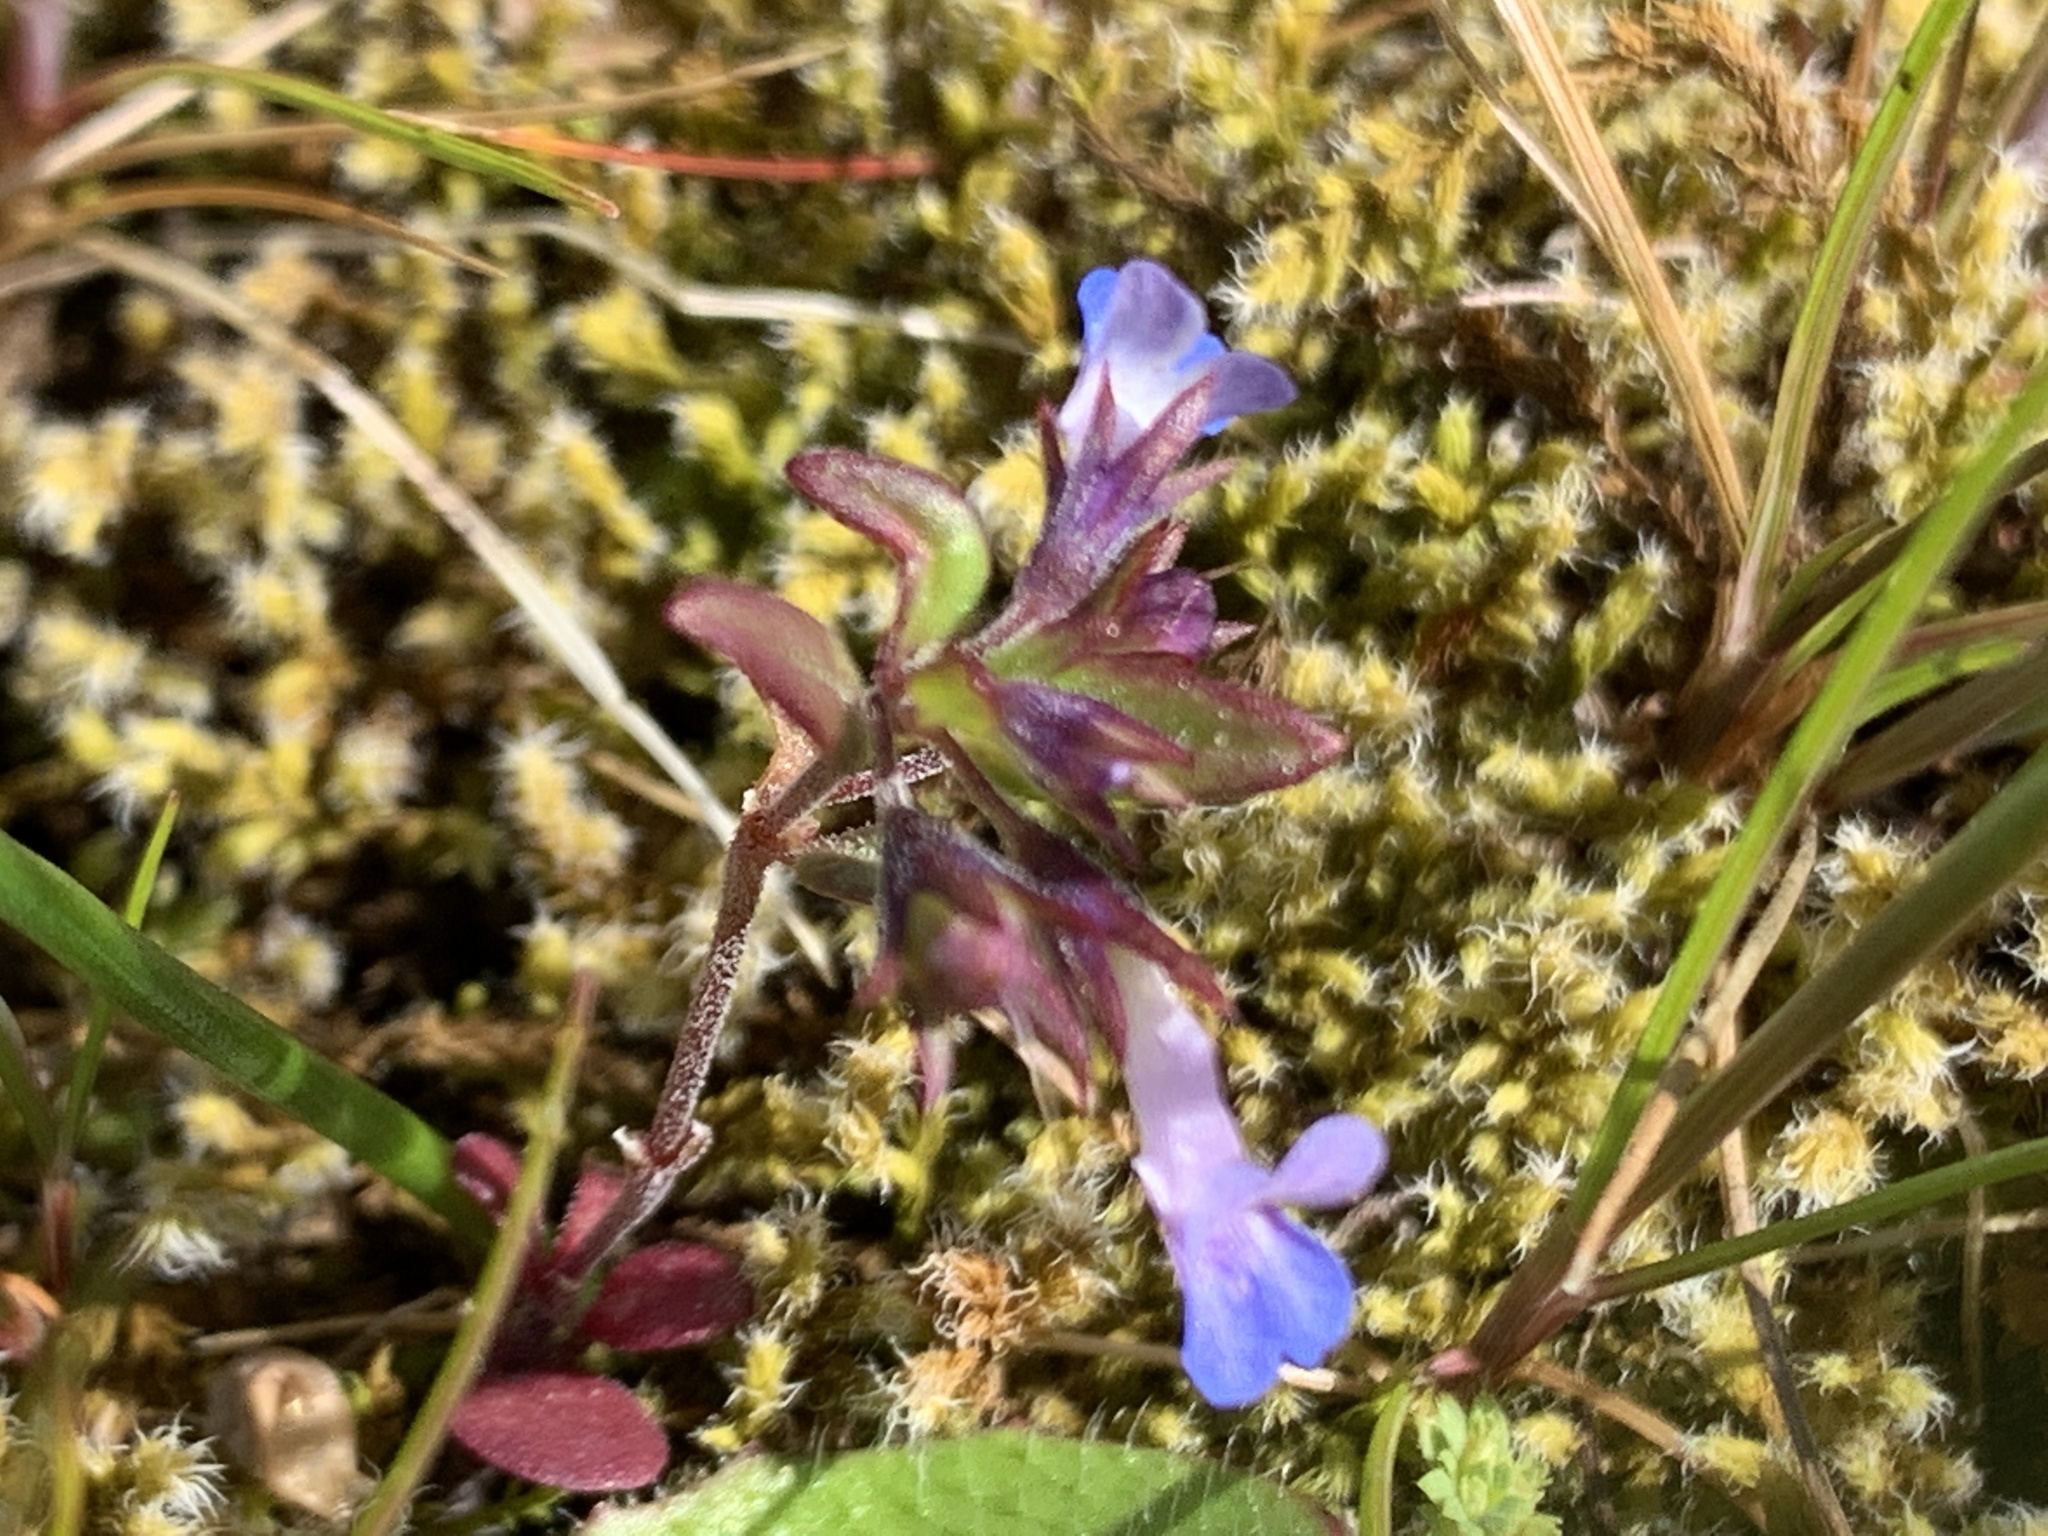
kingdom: Plantae
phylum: Tracheophyta
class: Magnoliopsida
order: Lamiales
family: Plantaginaceae
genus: Collinsia
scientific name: Collinsia parviflora
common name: Blue-lips
